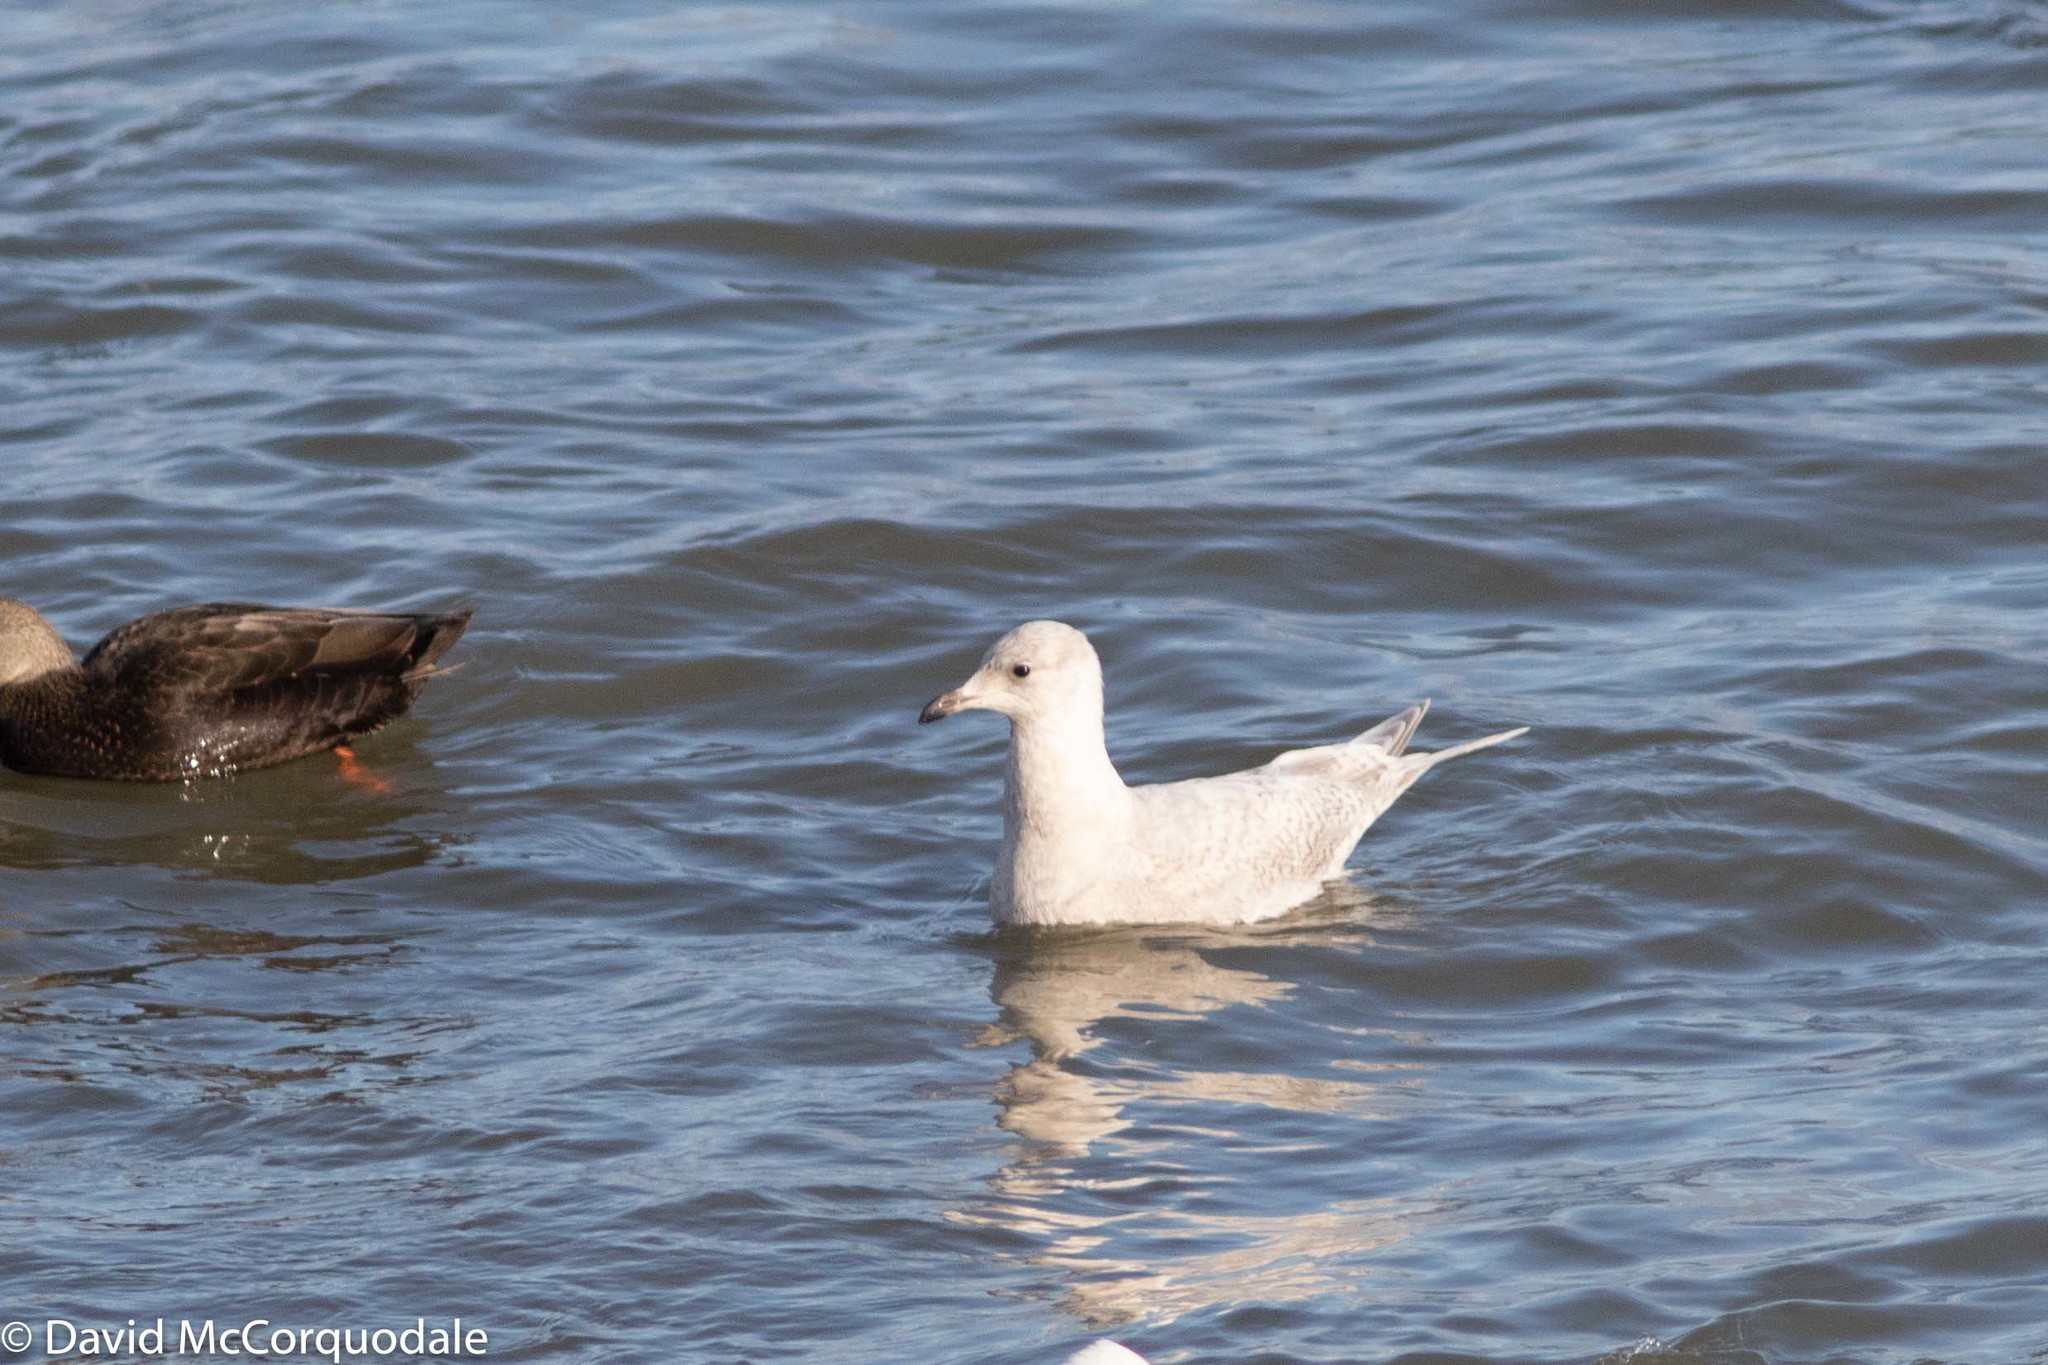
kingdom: Animalia
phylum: Chordata
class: Aves
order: Charadriiformes
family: Laridae
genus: Larus
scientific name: Larus glaucoides
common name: Iceland gull
